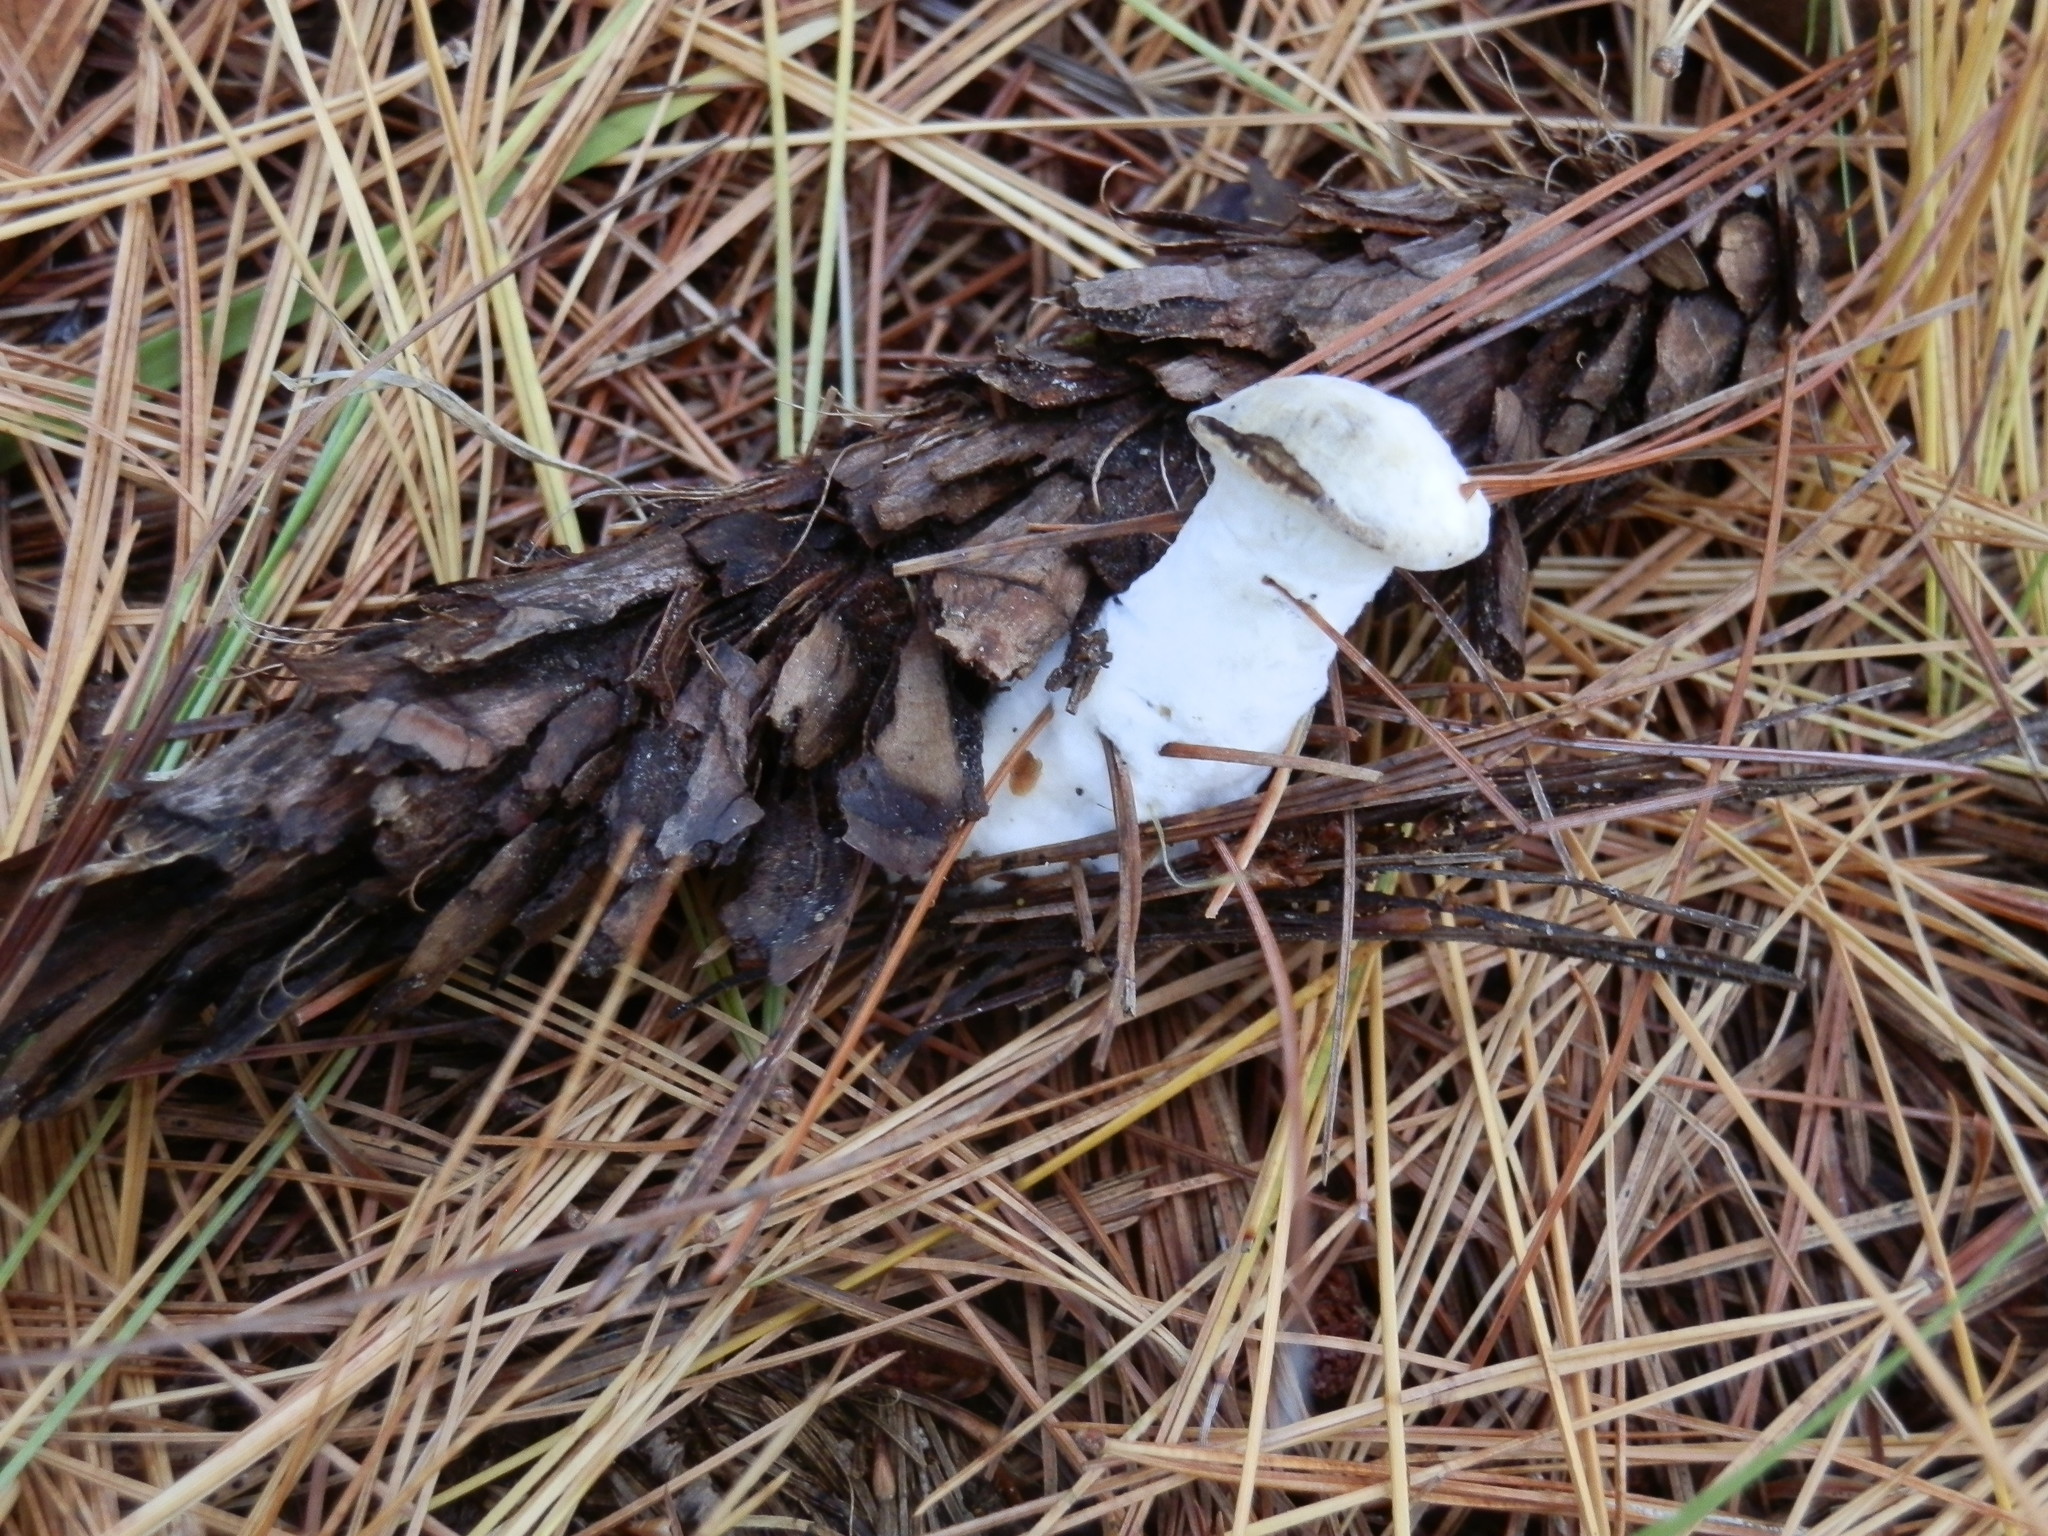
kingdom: Fungi
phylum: Ascomycota
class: Sordariomycetes
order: Hypocreales
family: Hypocreaceae
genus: Hypomyces
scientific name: Hypomyces chrysospermus
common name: Bolete mould
